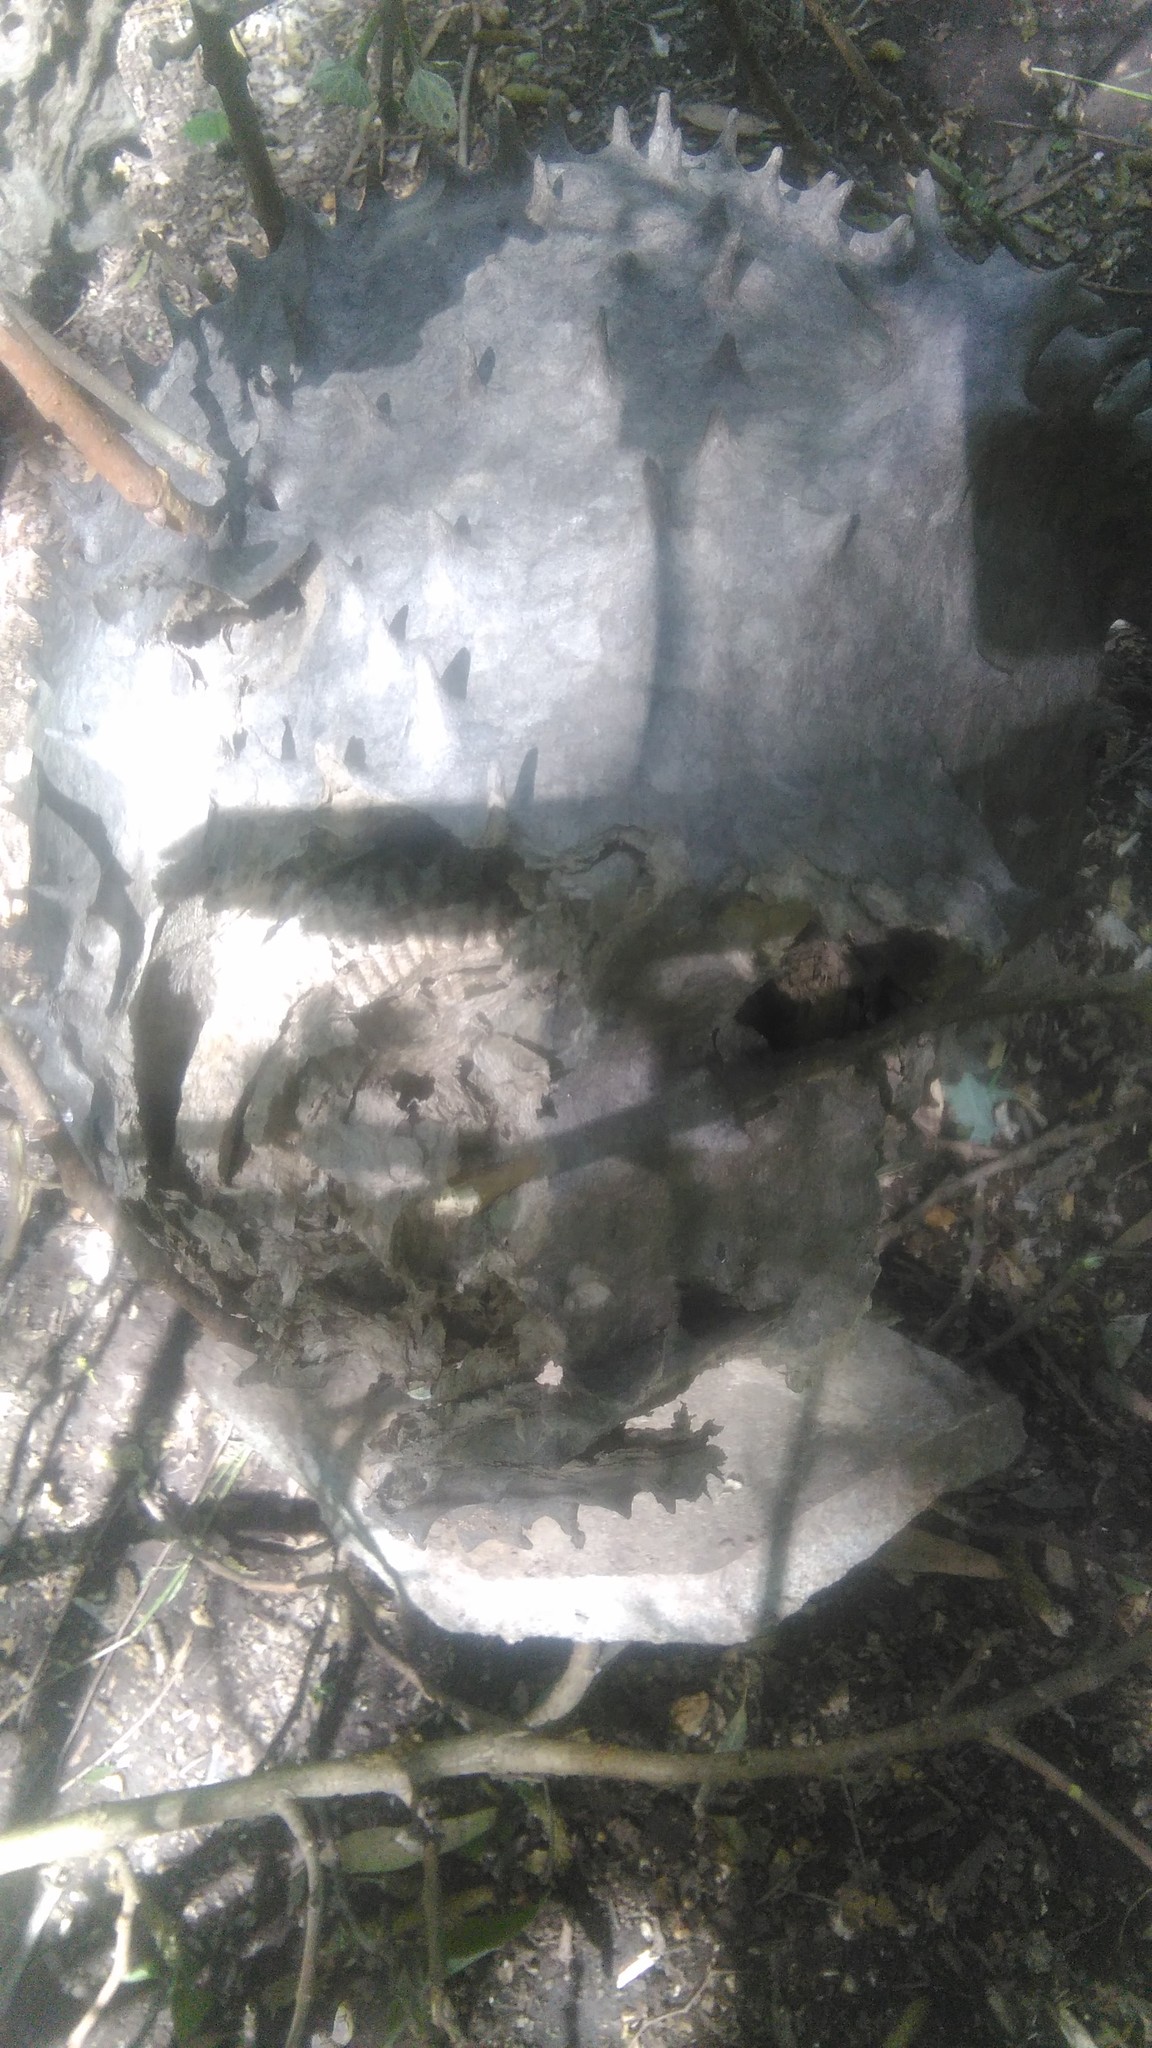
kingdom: Animalia
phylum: Arthropoda
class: Insecta
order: Hymenoptera
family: Eumenidae
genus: Polybia
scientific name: Polybia scutellaris
